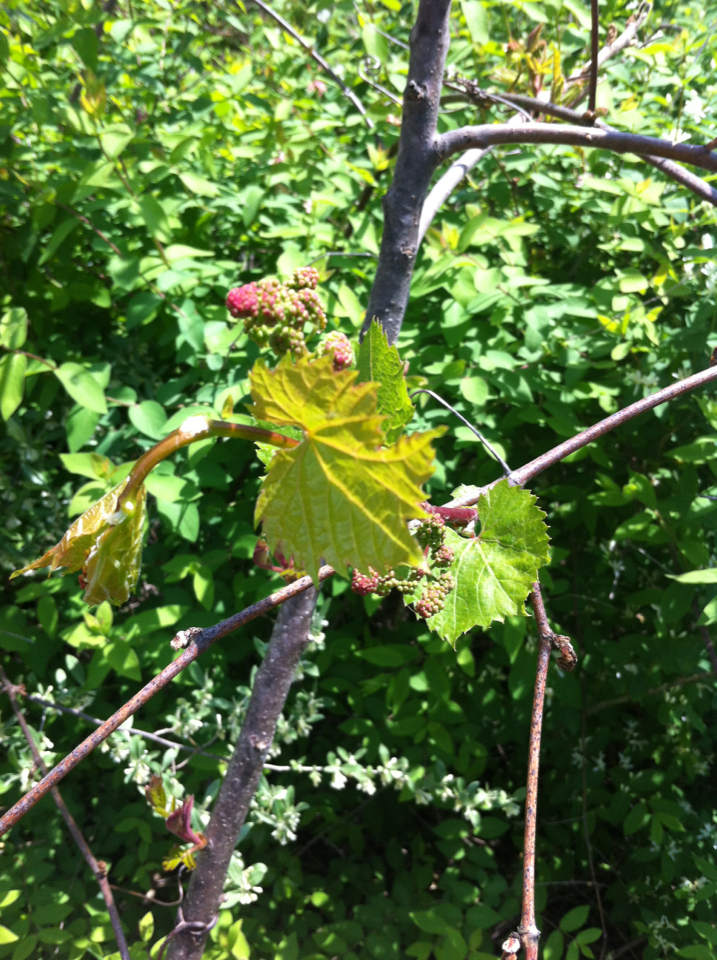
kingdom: Plantae
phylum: Tracheophyta
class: Magnoliopsida
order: Vitales
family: Vitaceae
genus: Vitis
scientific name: Vitis riparia
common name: Frost grape
